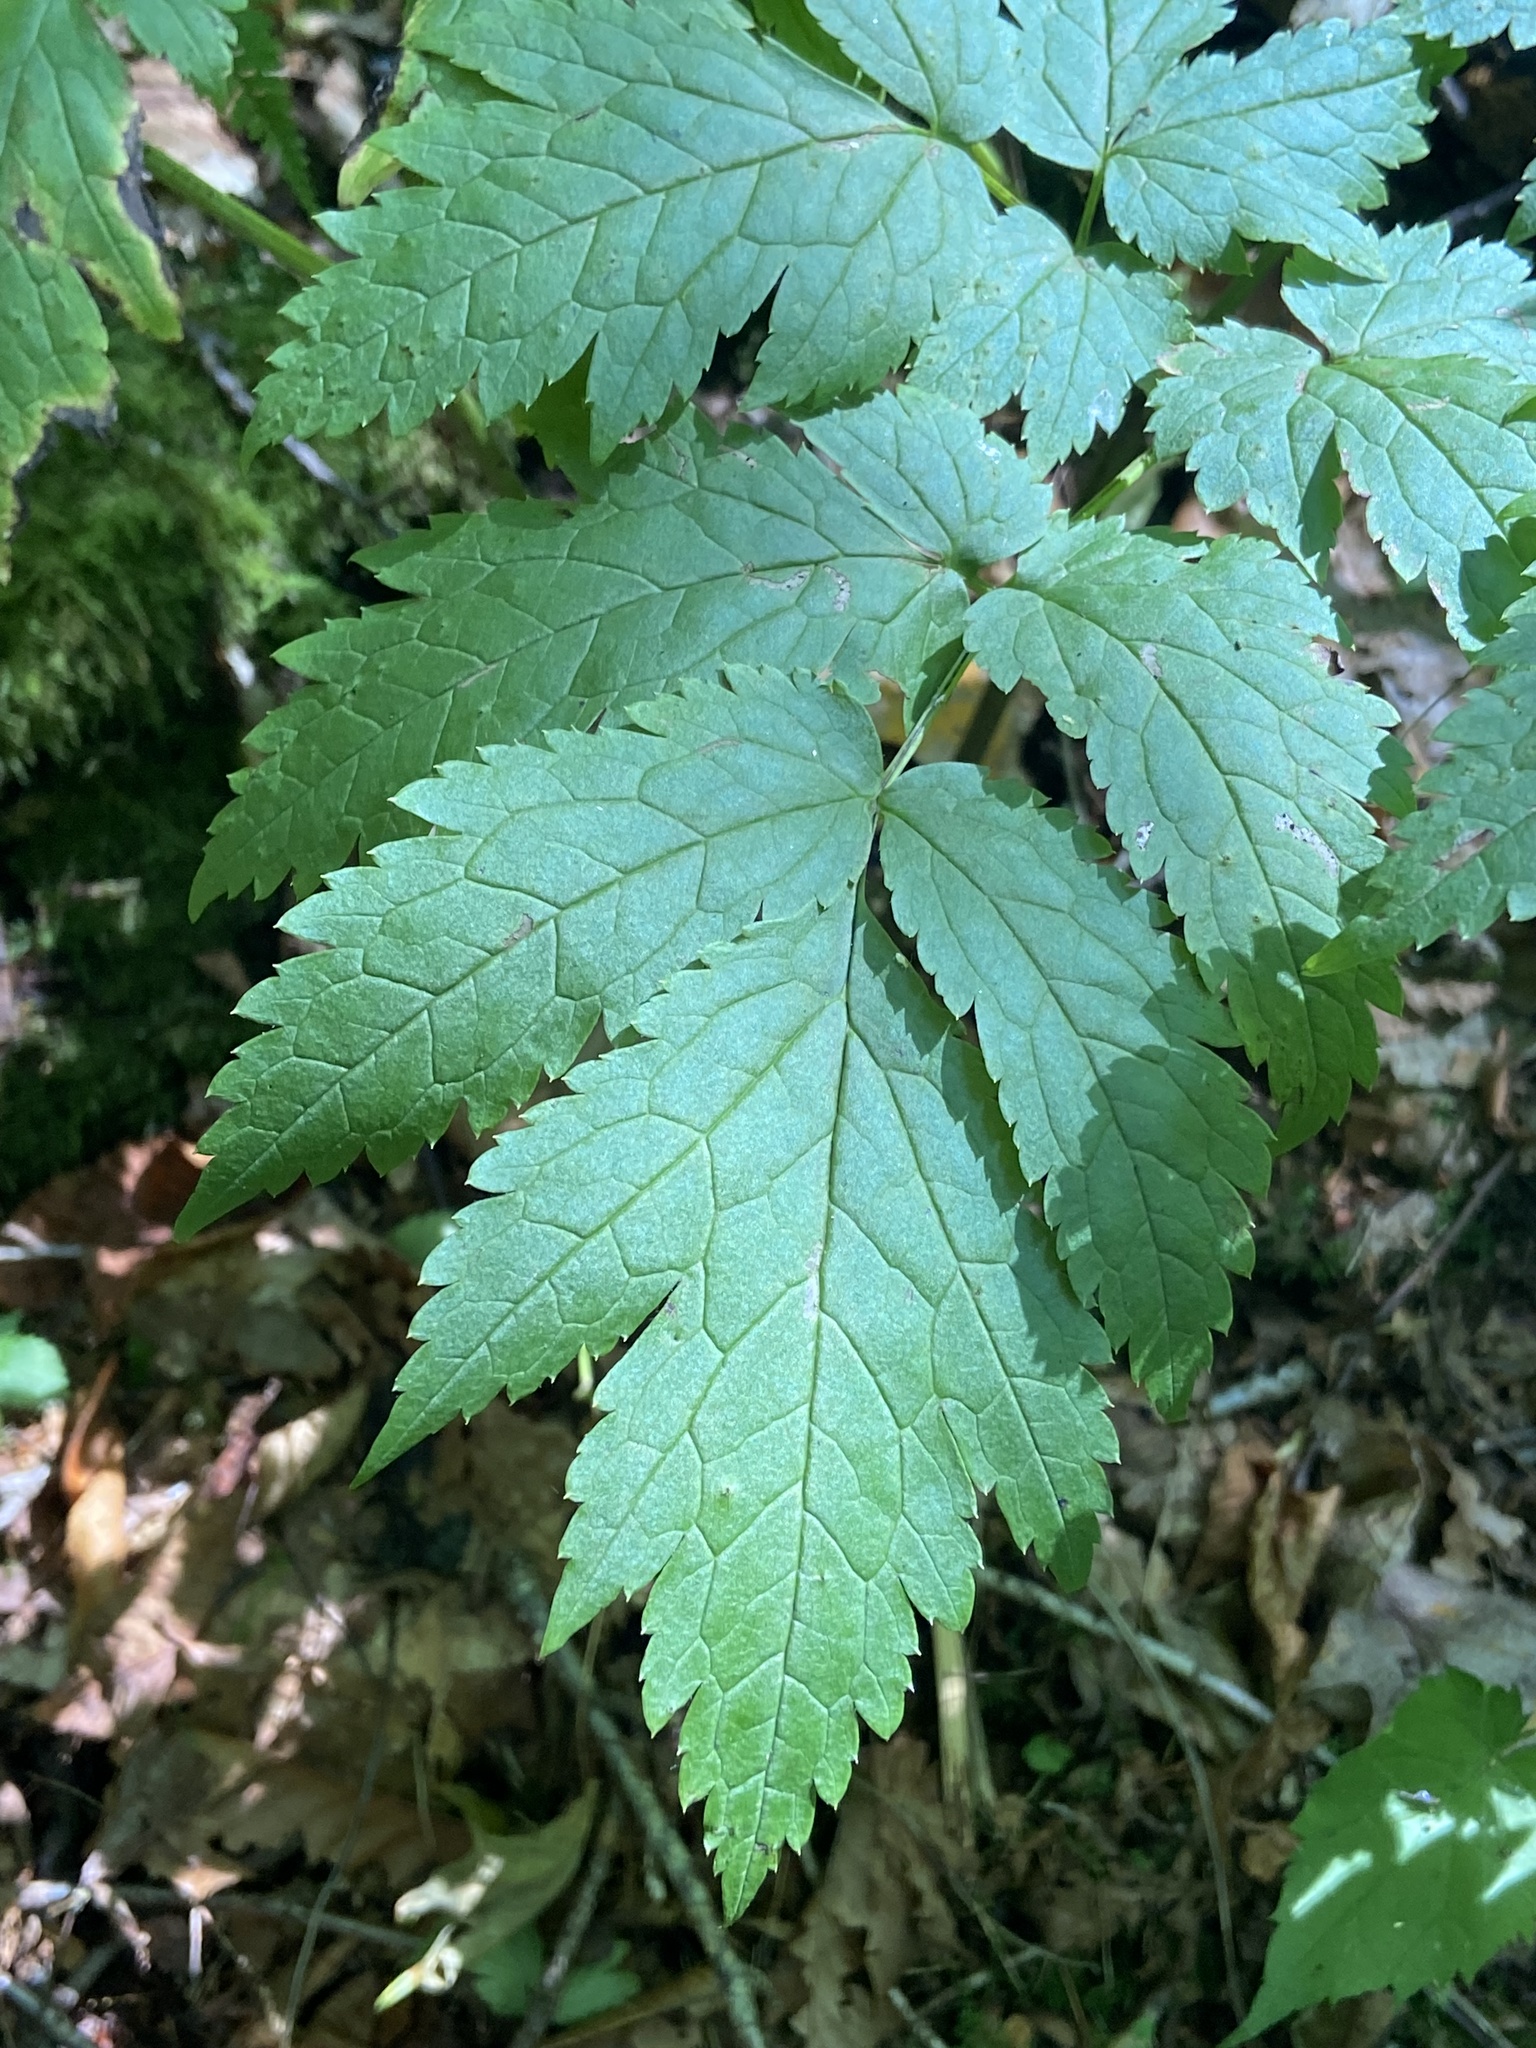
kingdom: Plantae
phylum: Tracheophyta
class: Magnoliopsida
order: Ranunculales
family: Ranunculaceae
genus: Actaea
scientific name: Actaea podocarpa
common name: American bugbane
